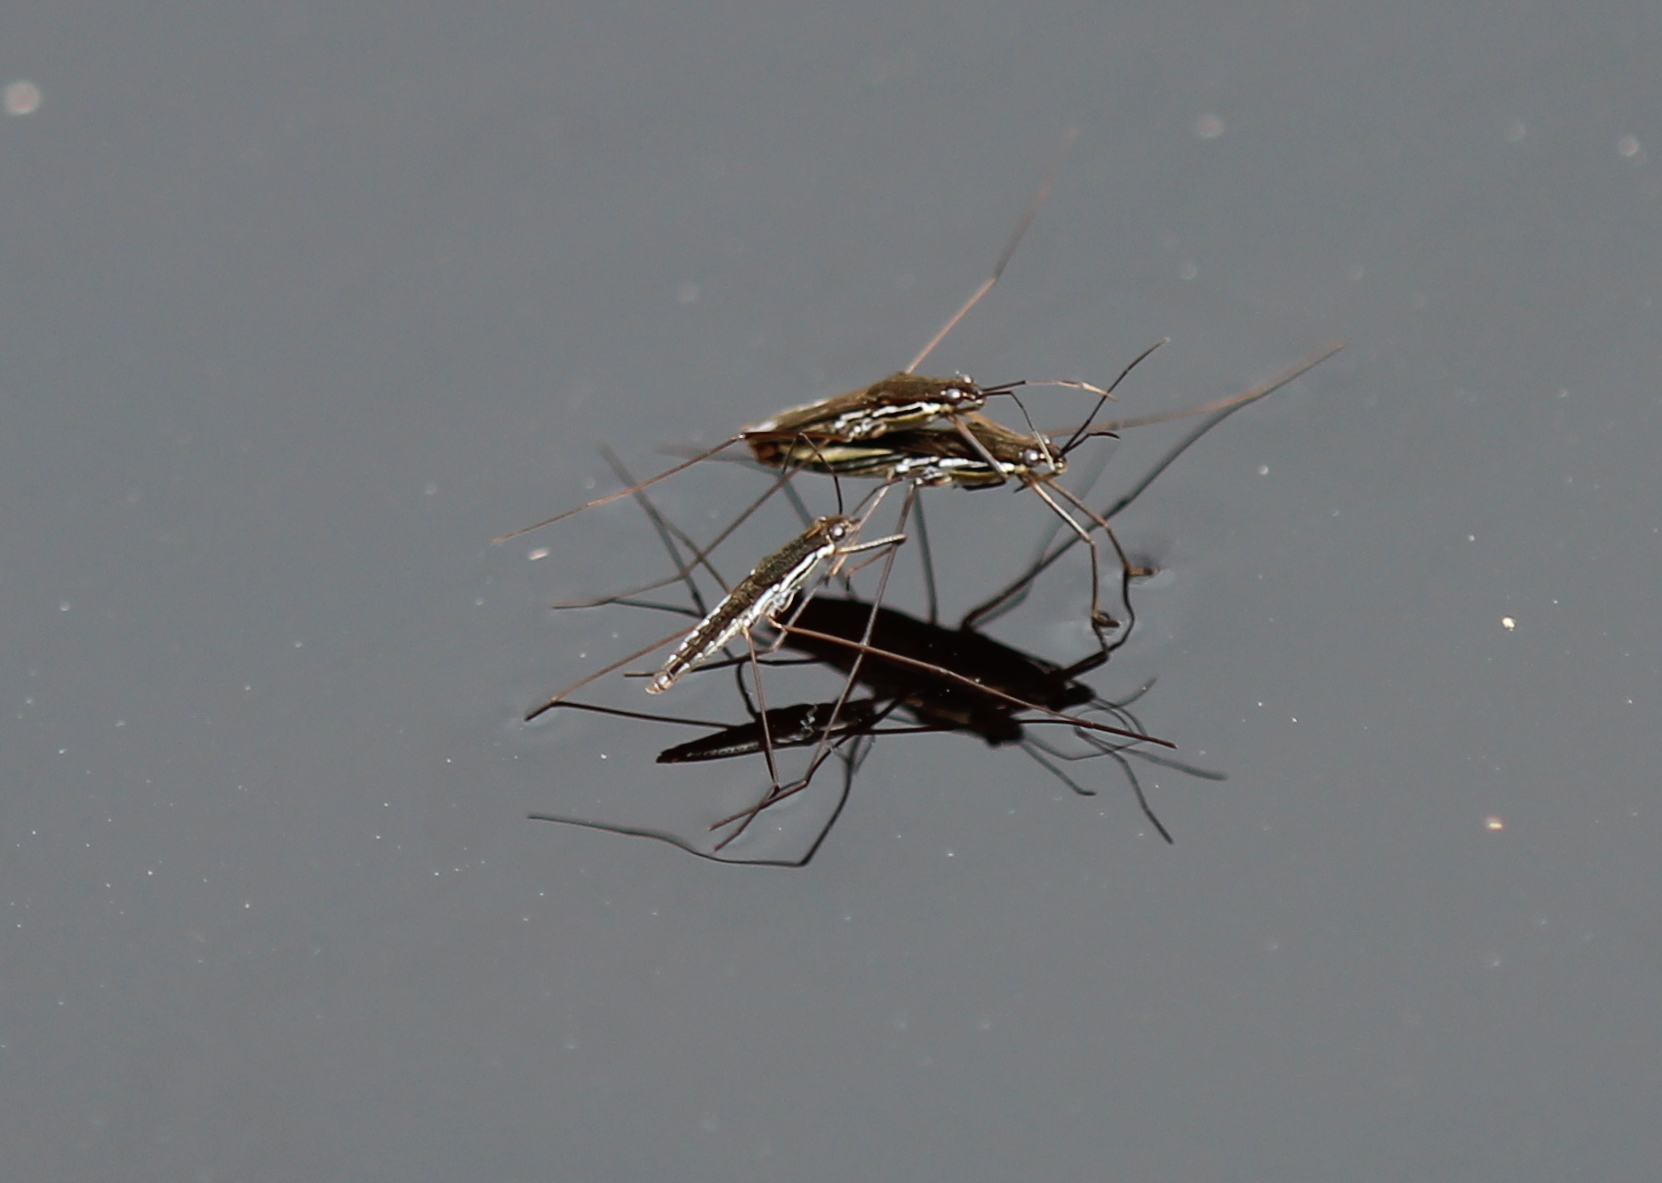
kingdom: Animalia
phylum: Arthropoda
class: Insecta
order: Hemiptera
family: Gerridae
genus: Limnoporus
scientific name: Limnoporus canaliculatus
